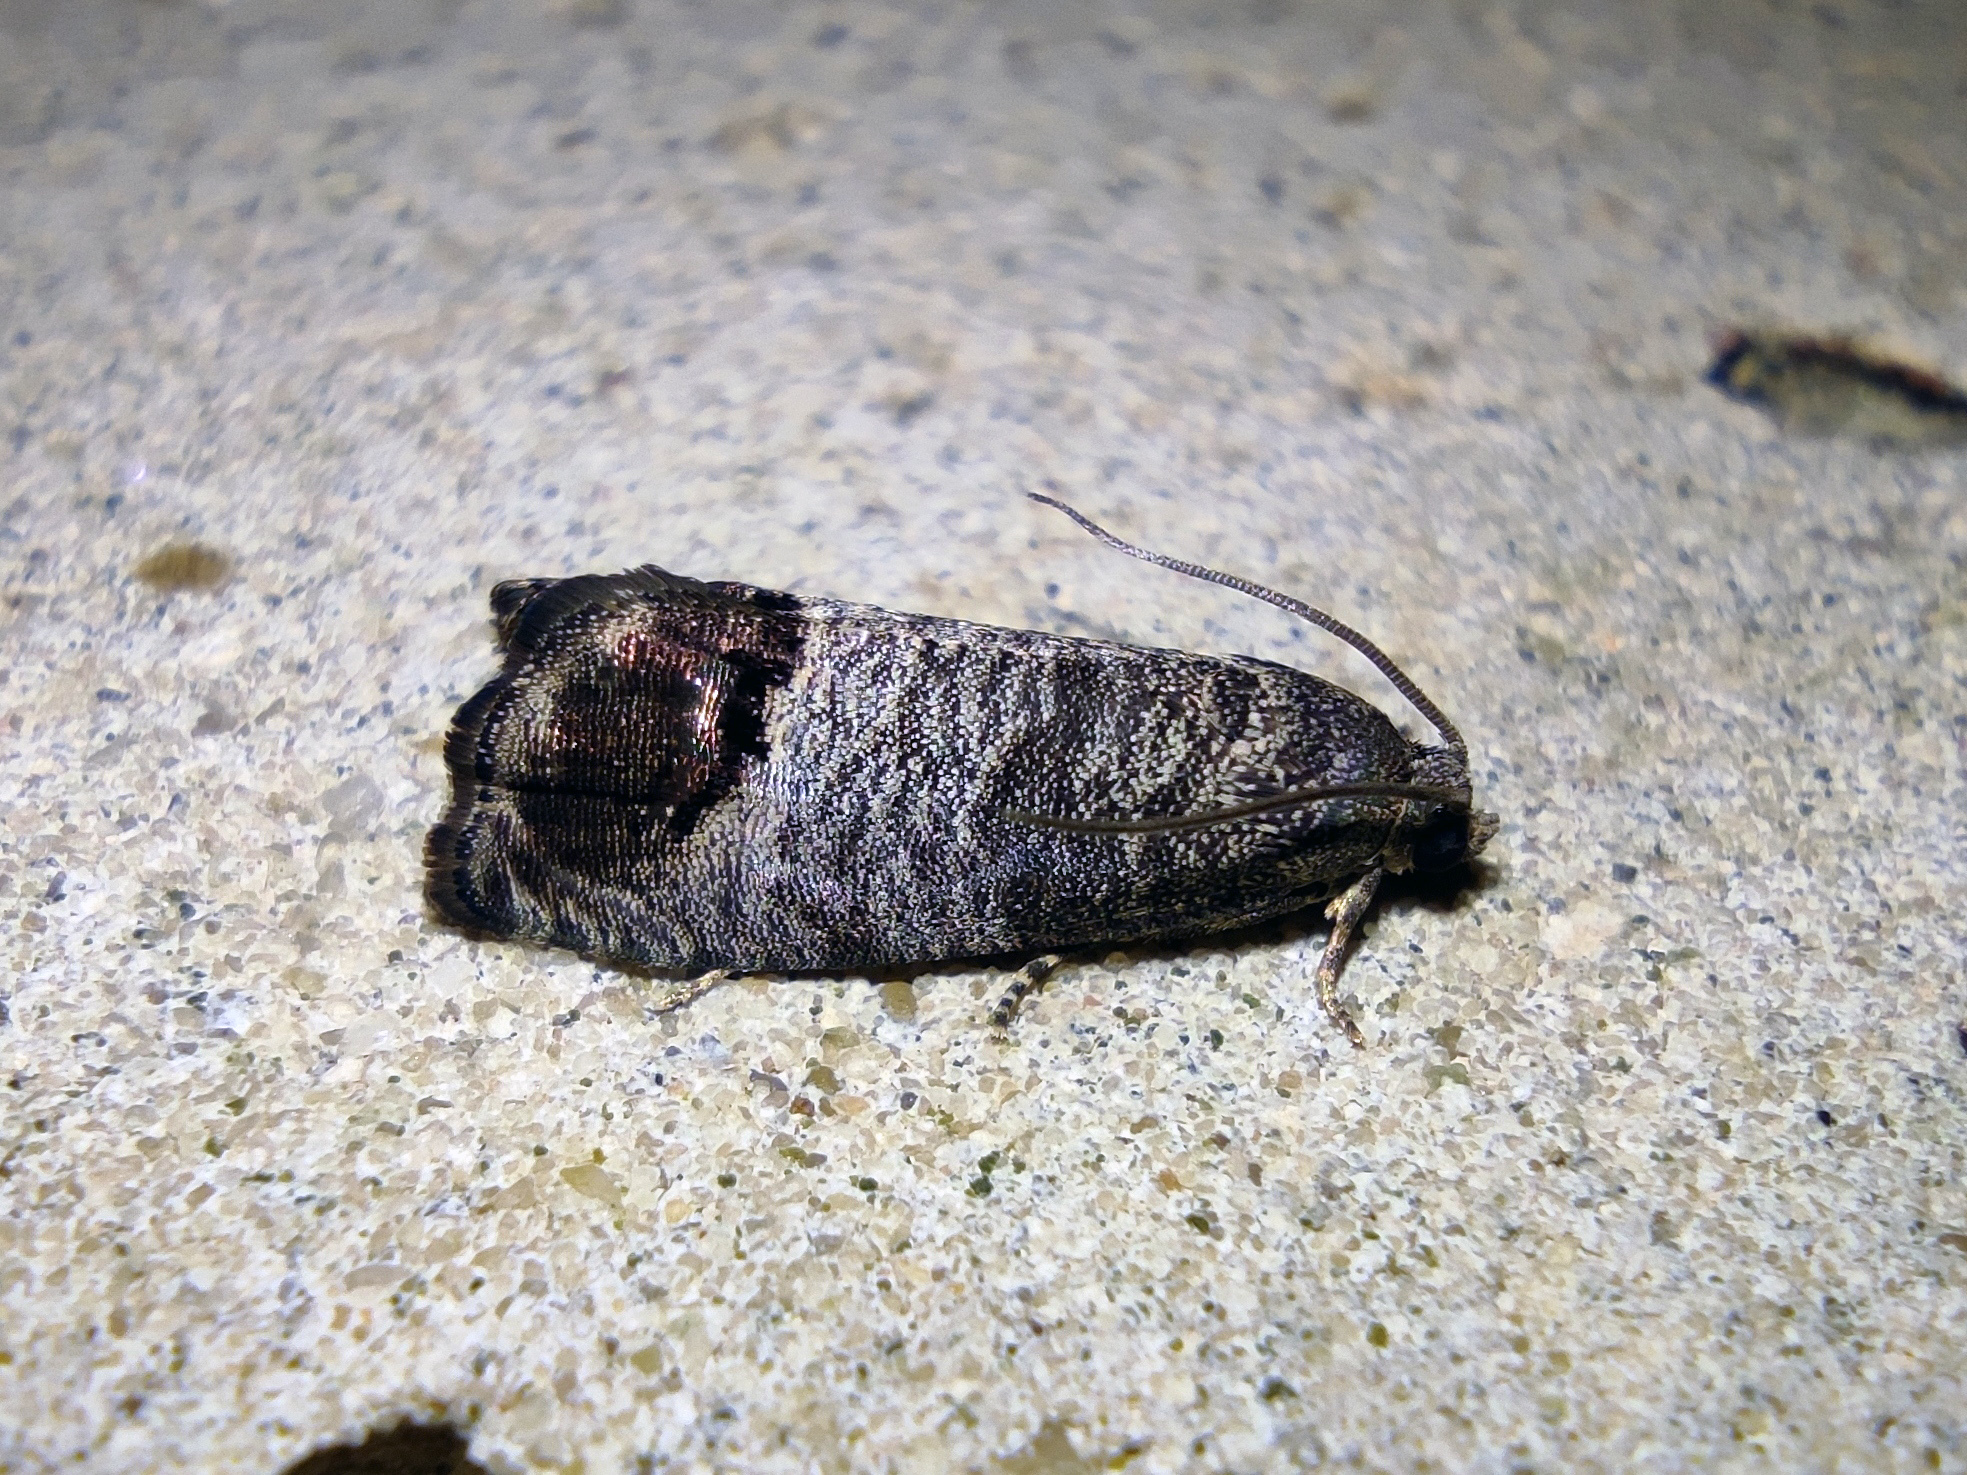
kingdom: Animalia
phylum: Arthropoda
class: Insecta
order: Lepidoptera
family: Tortricidae
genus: Cydia
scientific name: Cydia pomonella
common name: Codling moth
